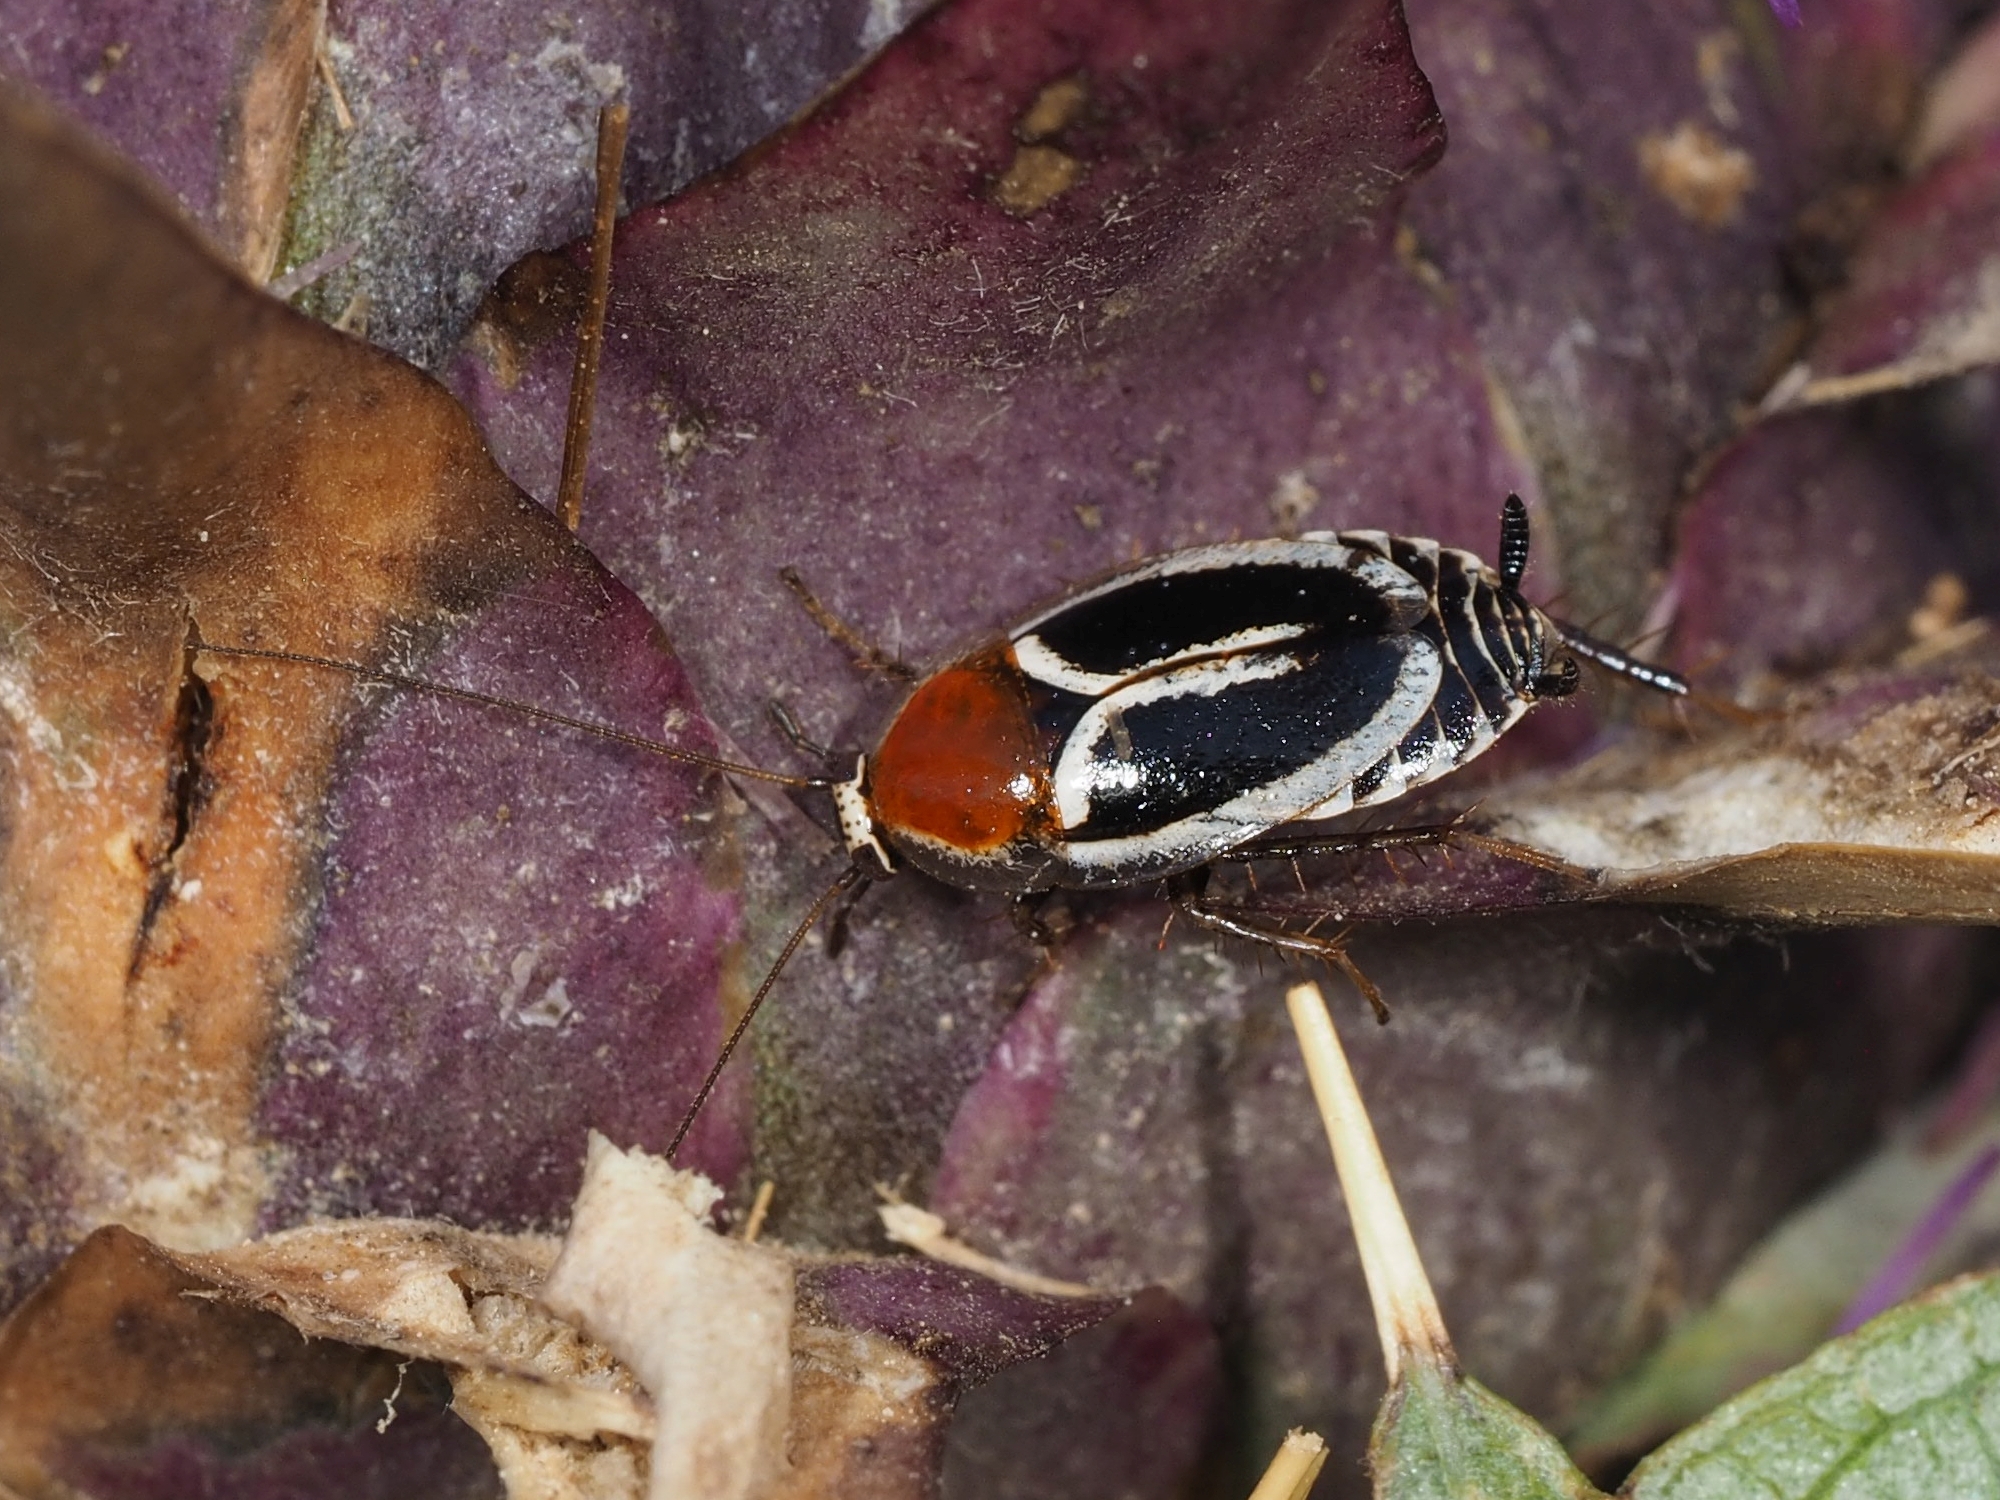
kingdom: Animalia
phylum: Arthropoda
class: Insecta
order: Blattodea
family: Ectobiidae
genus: Phyllodromica
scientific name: Phyllodromica marginata
